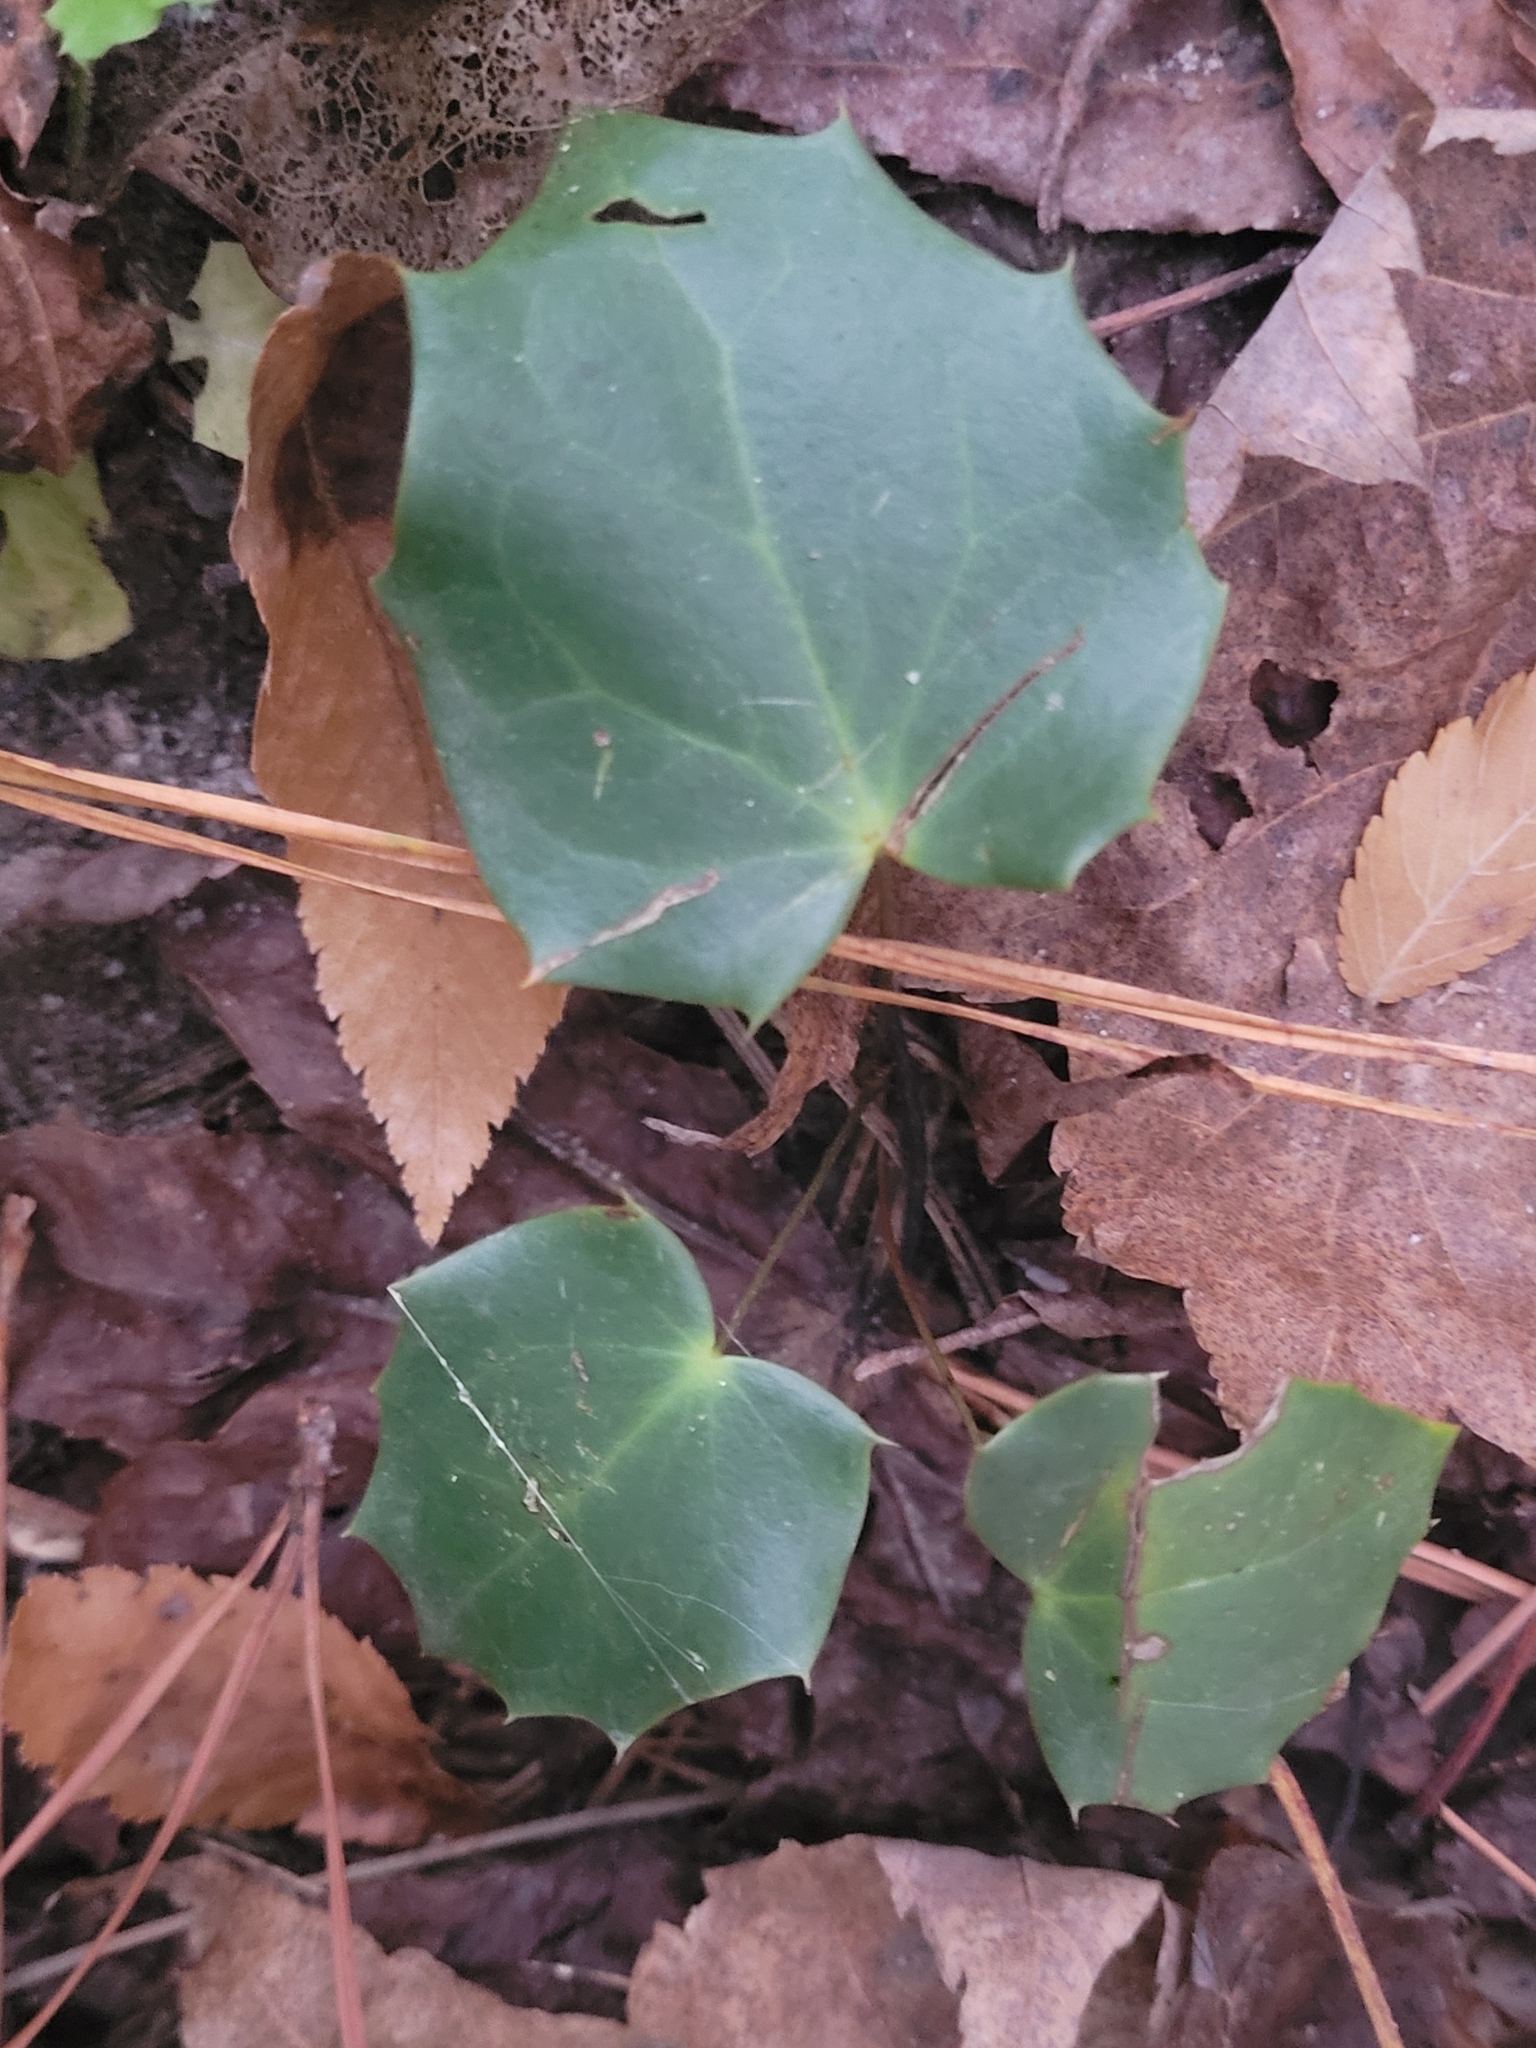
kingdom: Plantae
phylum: Tracheophyta
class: Magnoliopsida
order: Ranunculales
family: Berberidaceae
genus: Mahonia
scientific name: Mahonia bealei
